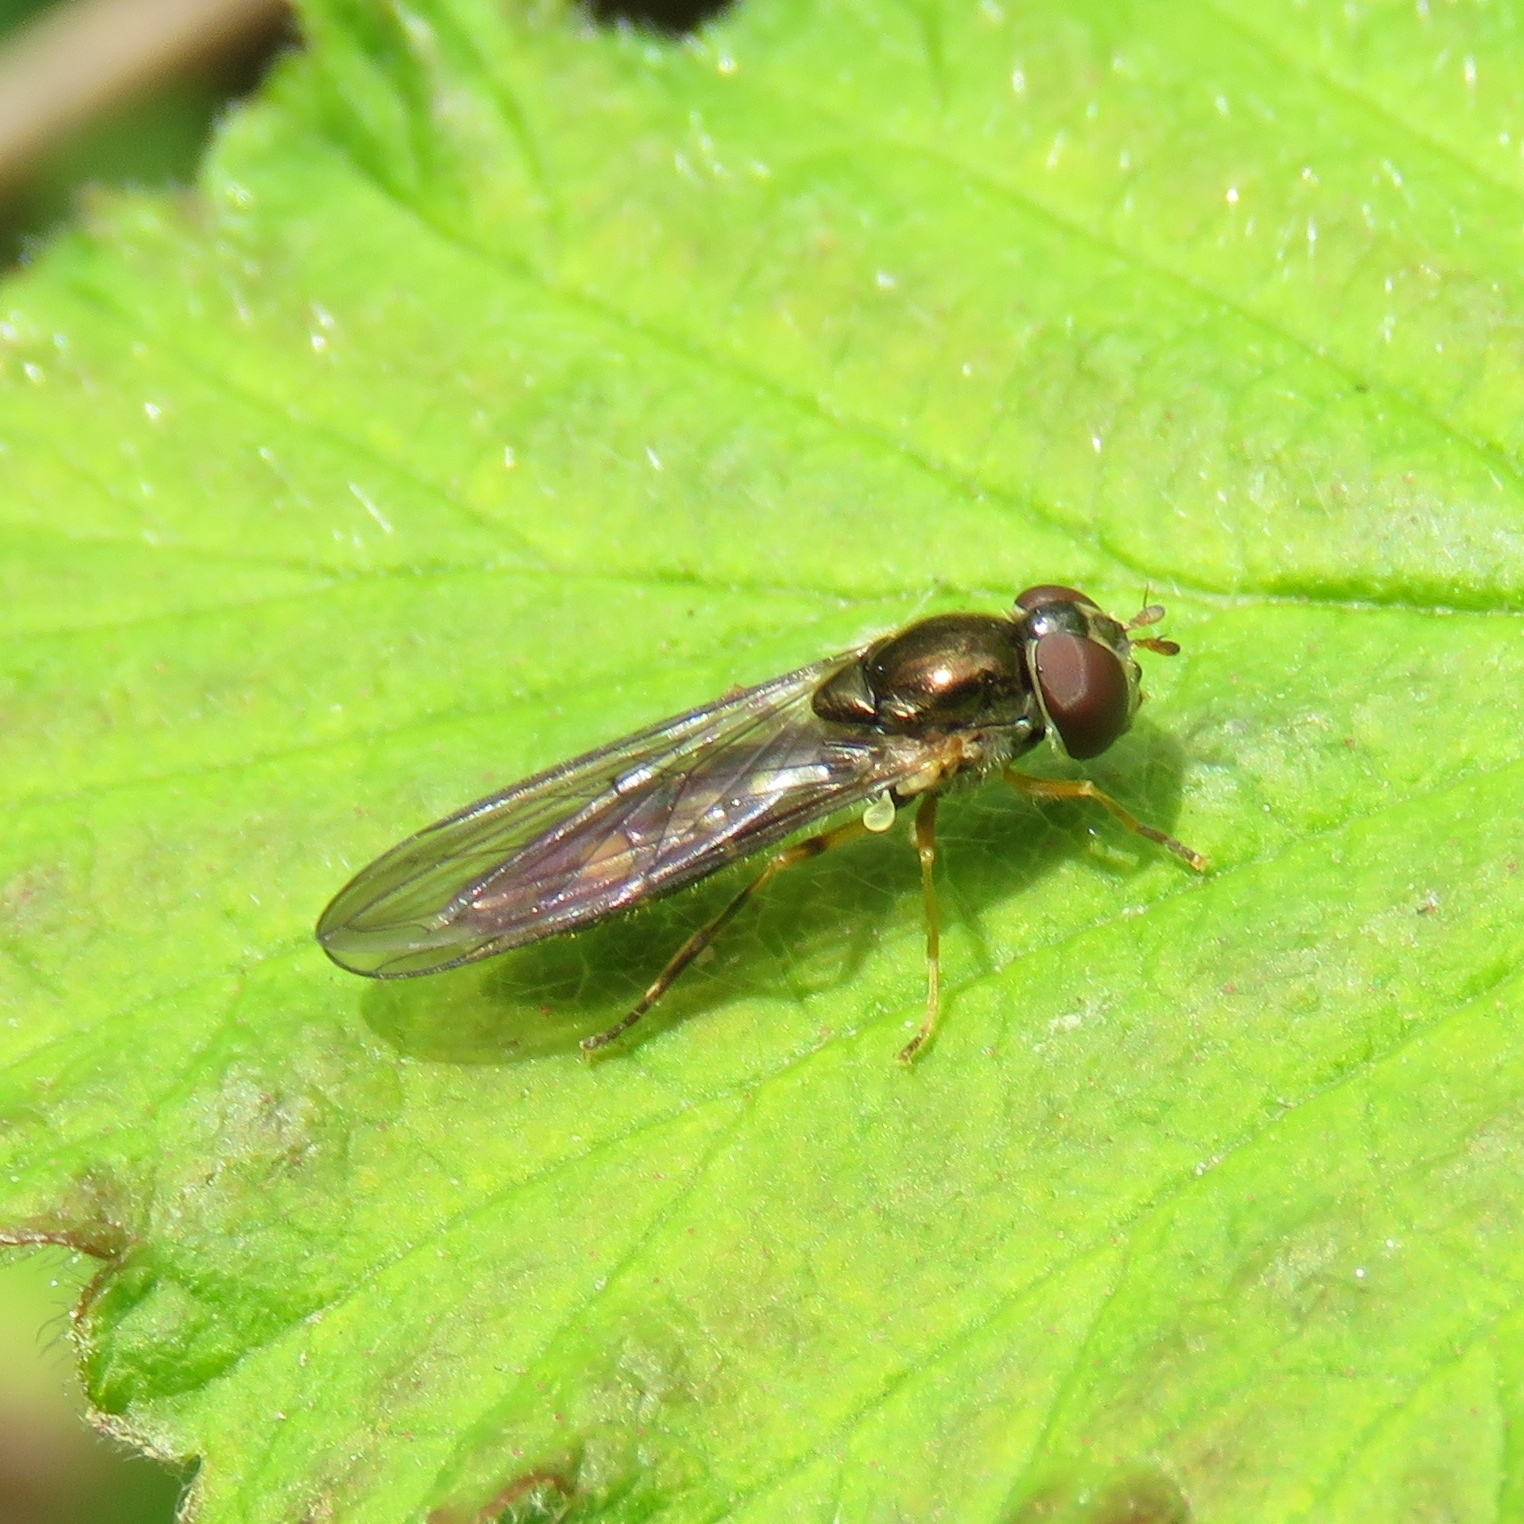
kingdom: Animalia
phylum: Arthropoda
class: Insecta
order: Diptera
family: Syrphidae
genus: Melanostoma
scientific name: Melanostoma scalare
